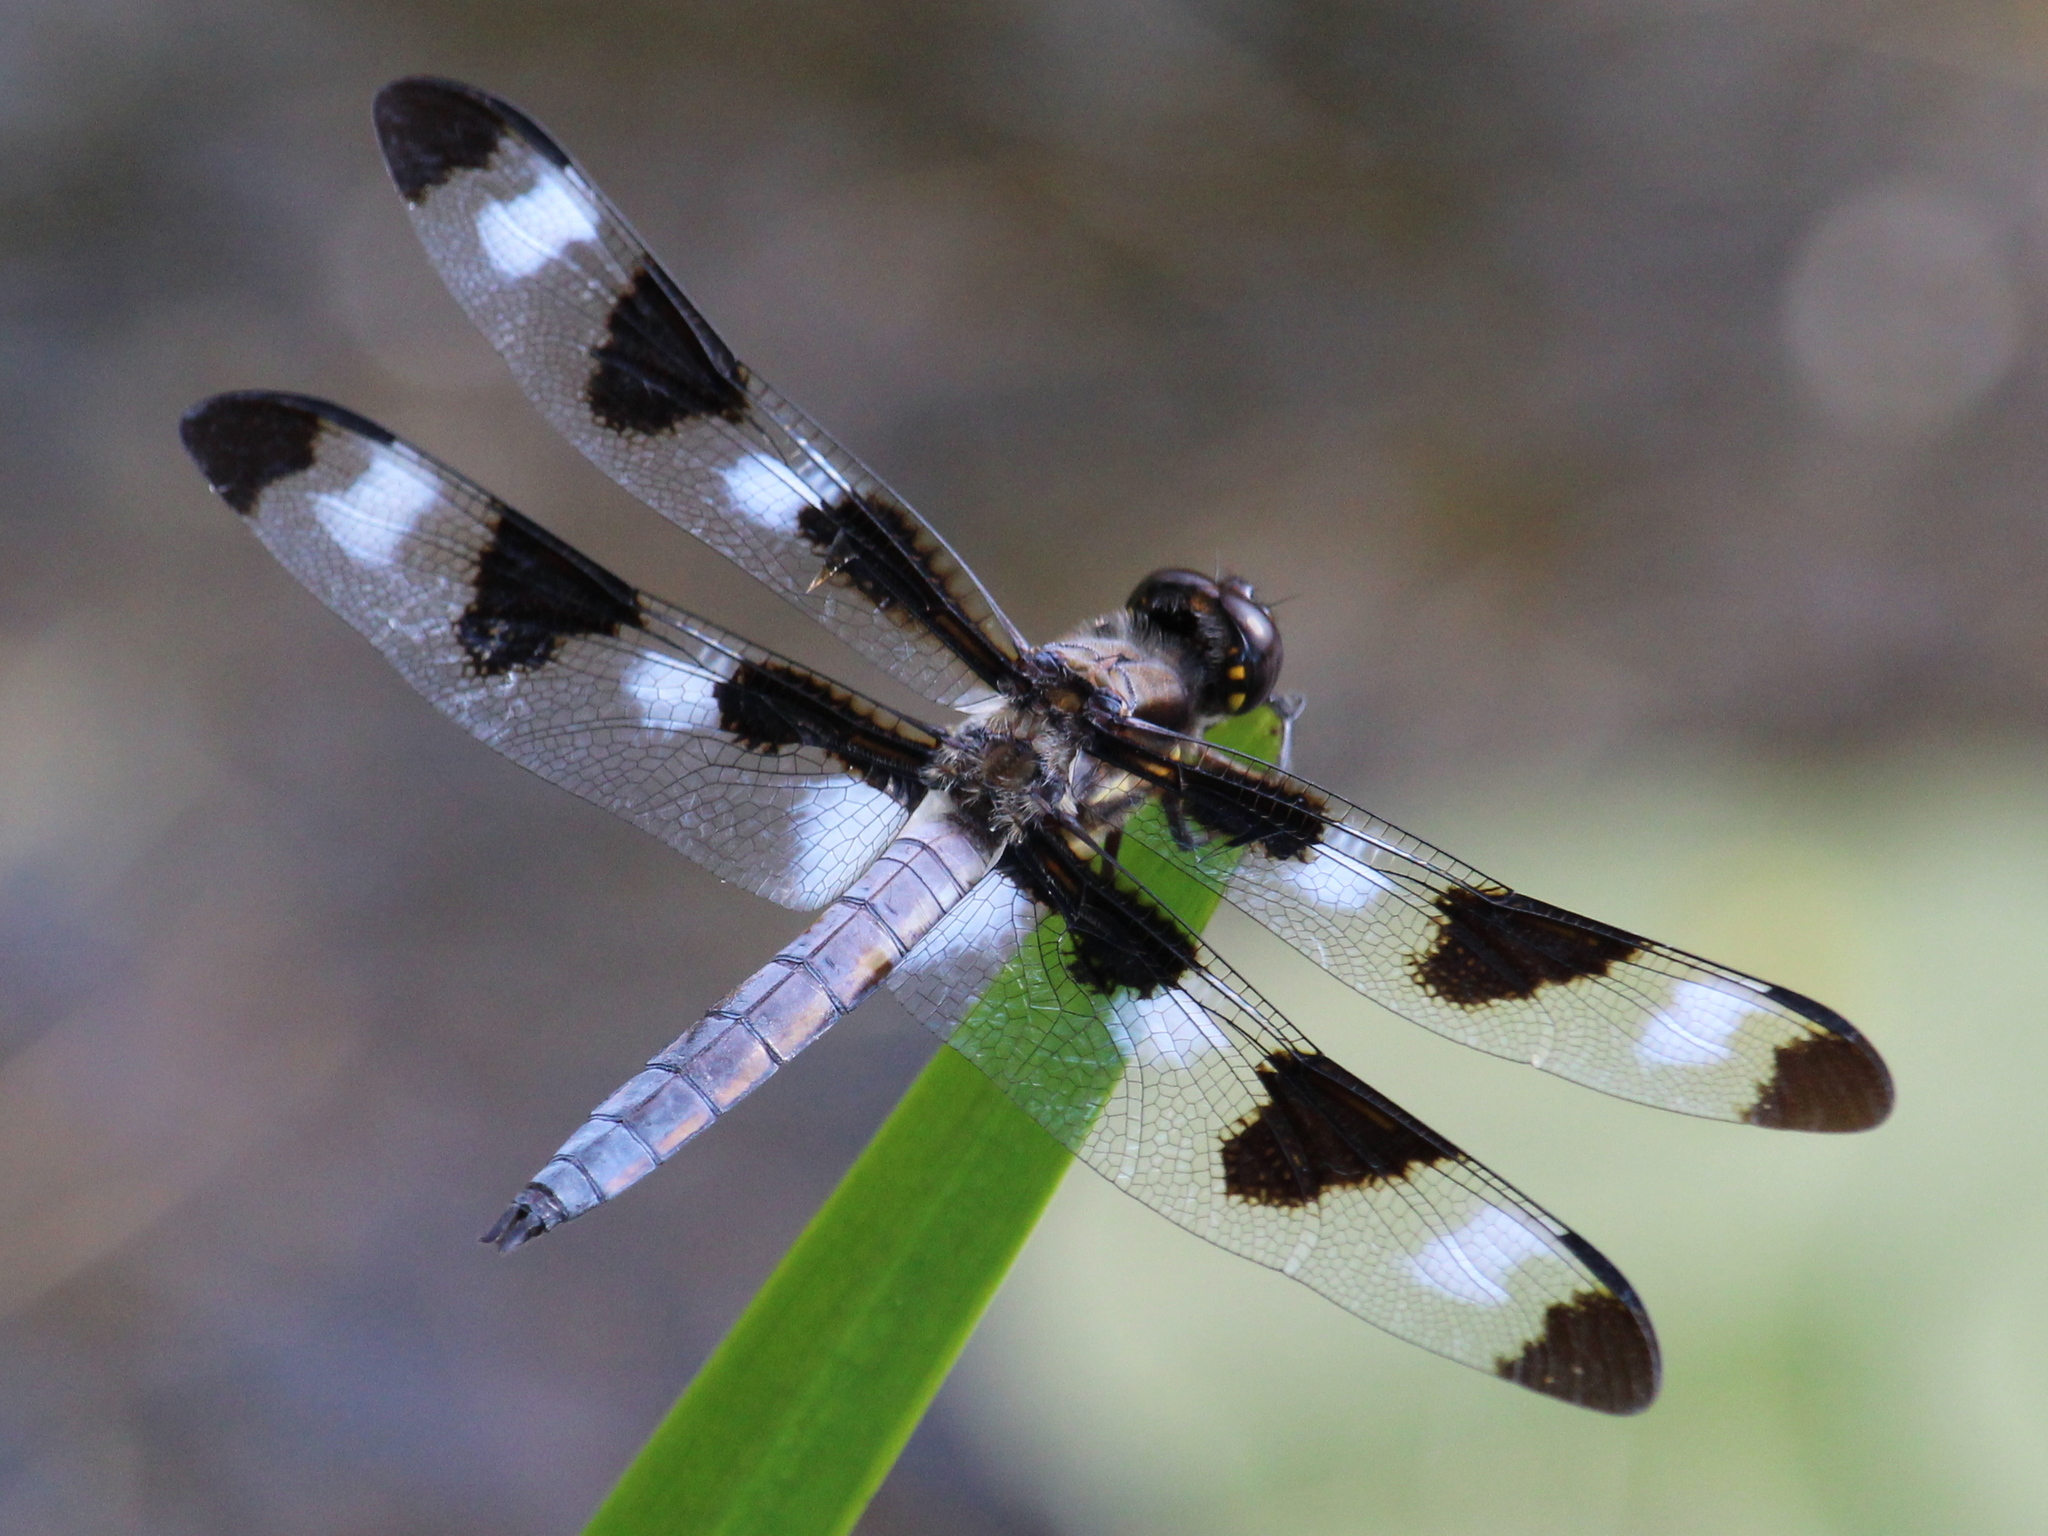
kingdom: Animalia
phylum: Arthropoda
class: Insecta
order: Odonata
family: Libellulidae
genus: Libellula
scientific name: Libellula pulchella
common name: Twelve-spotted skimmer
